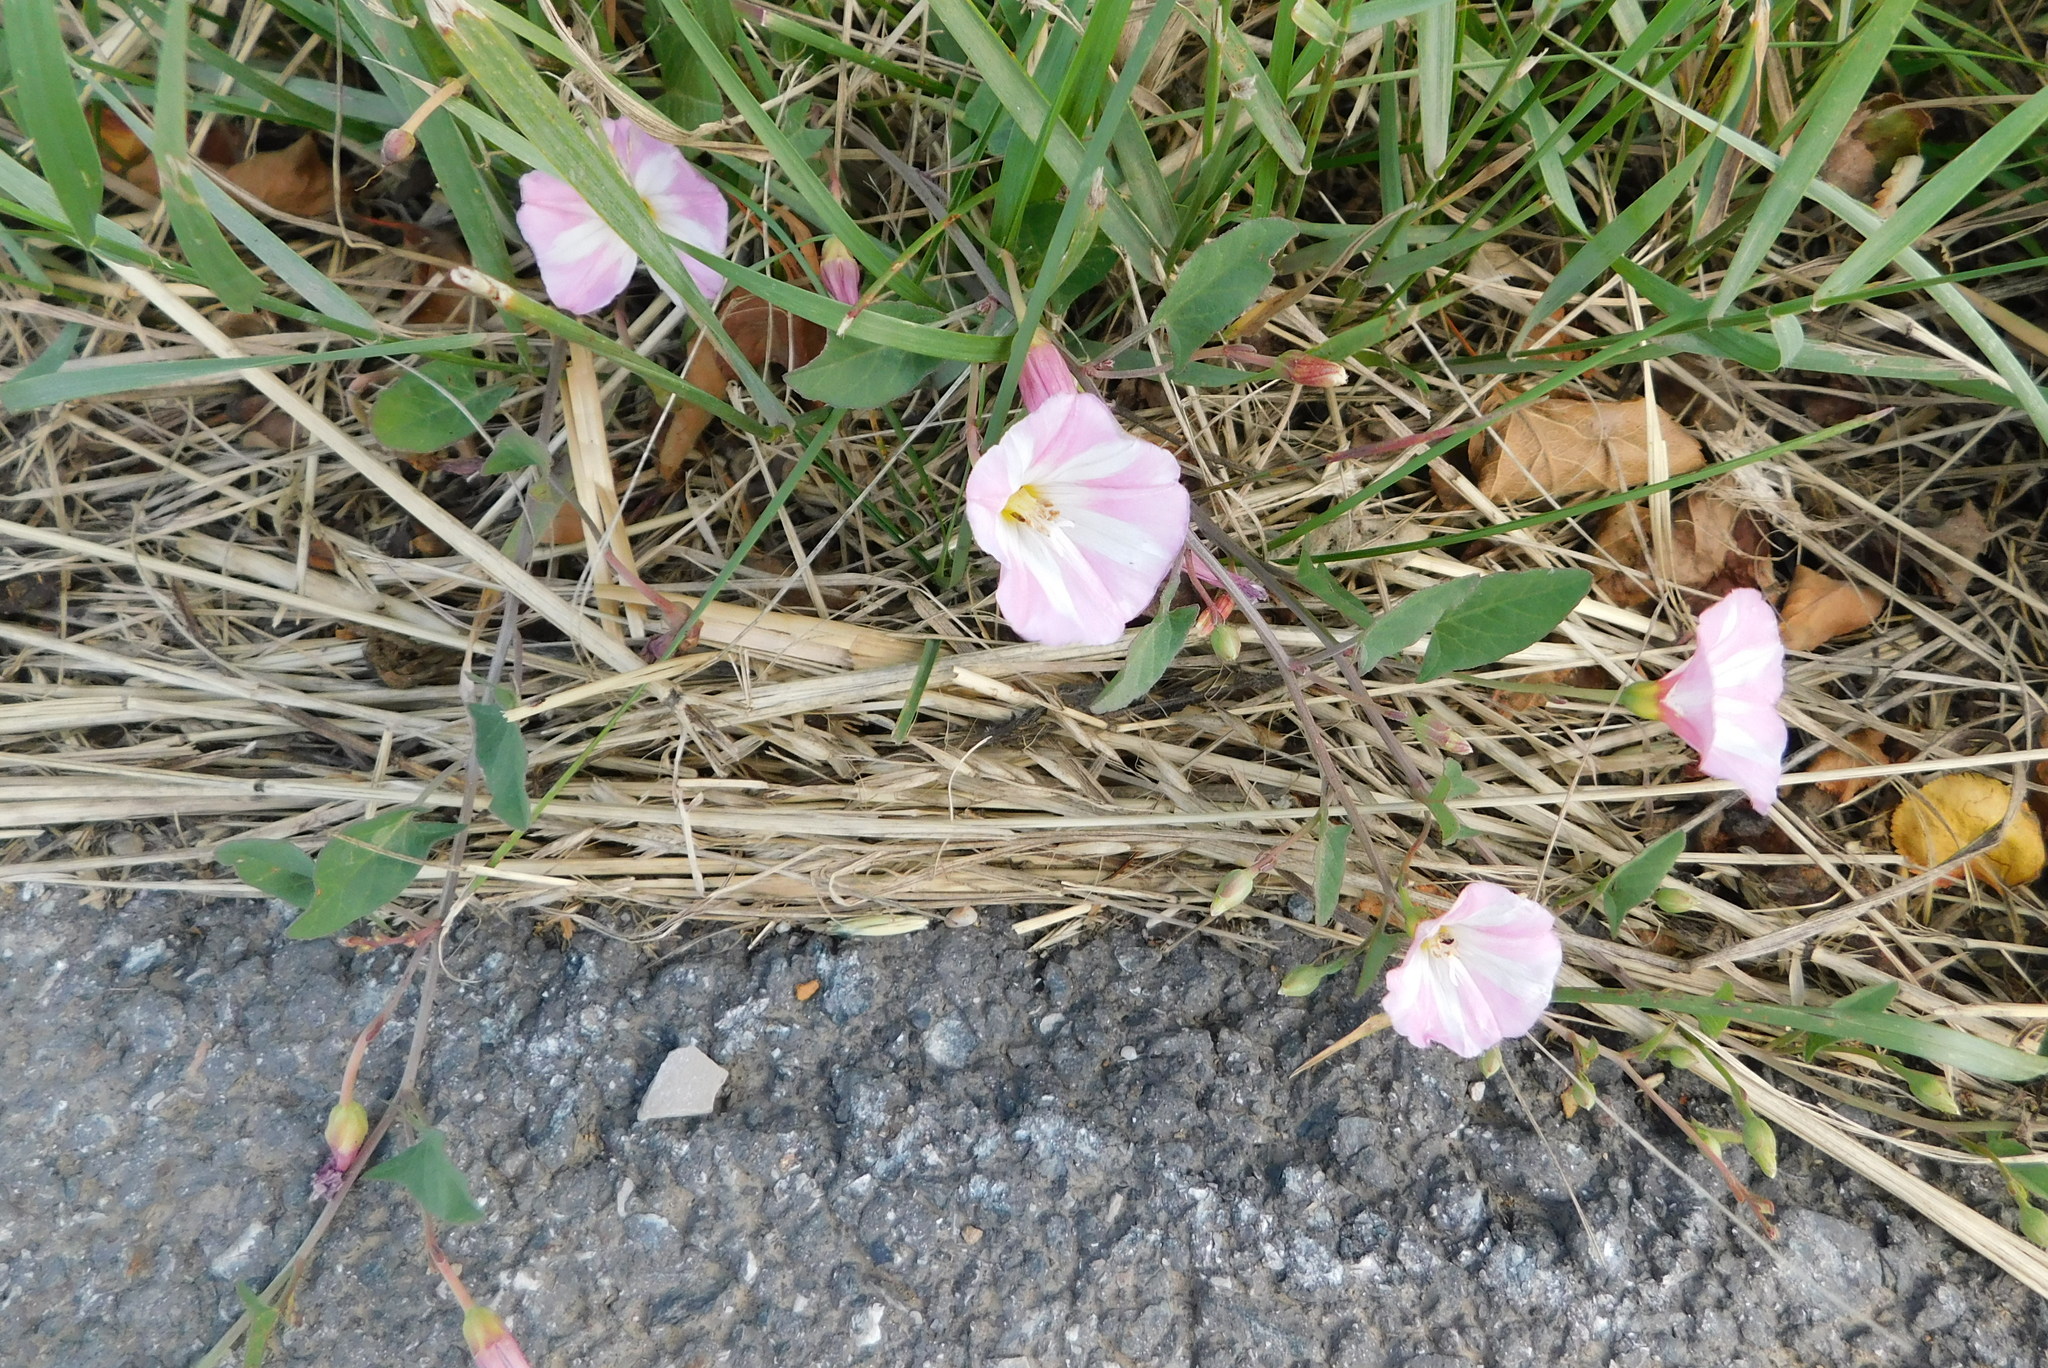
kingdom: Plantae
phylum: Tracheophyta
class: Magnoliopsida
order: Solanales
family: Convolvulaceae
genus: Convolvulus
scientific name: Convolvulus arvensis
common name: Field bindweed
